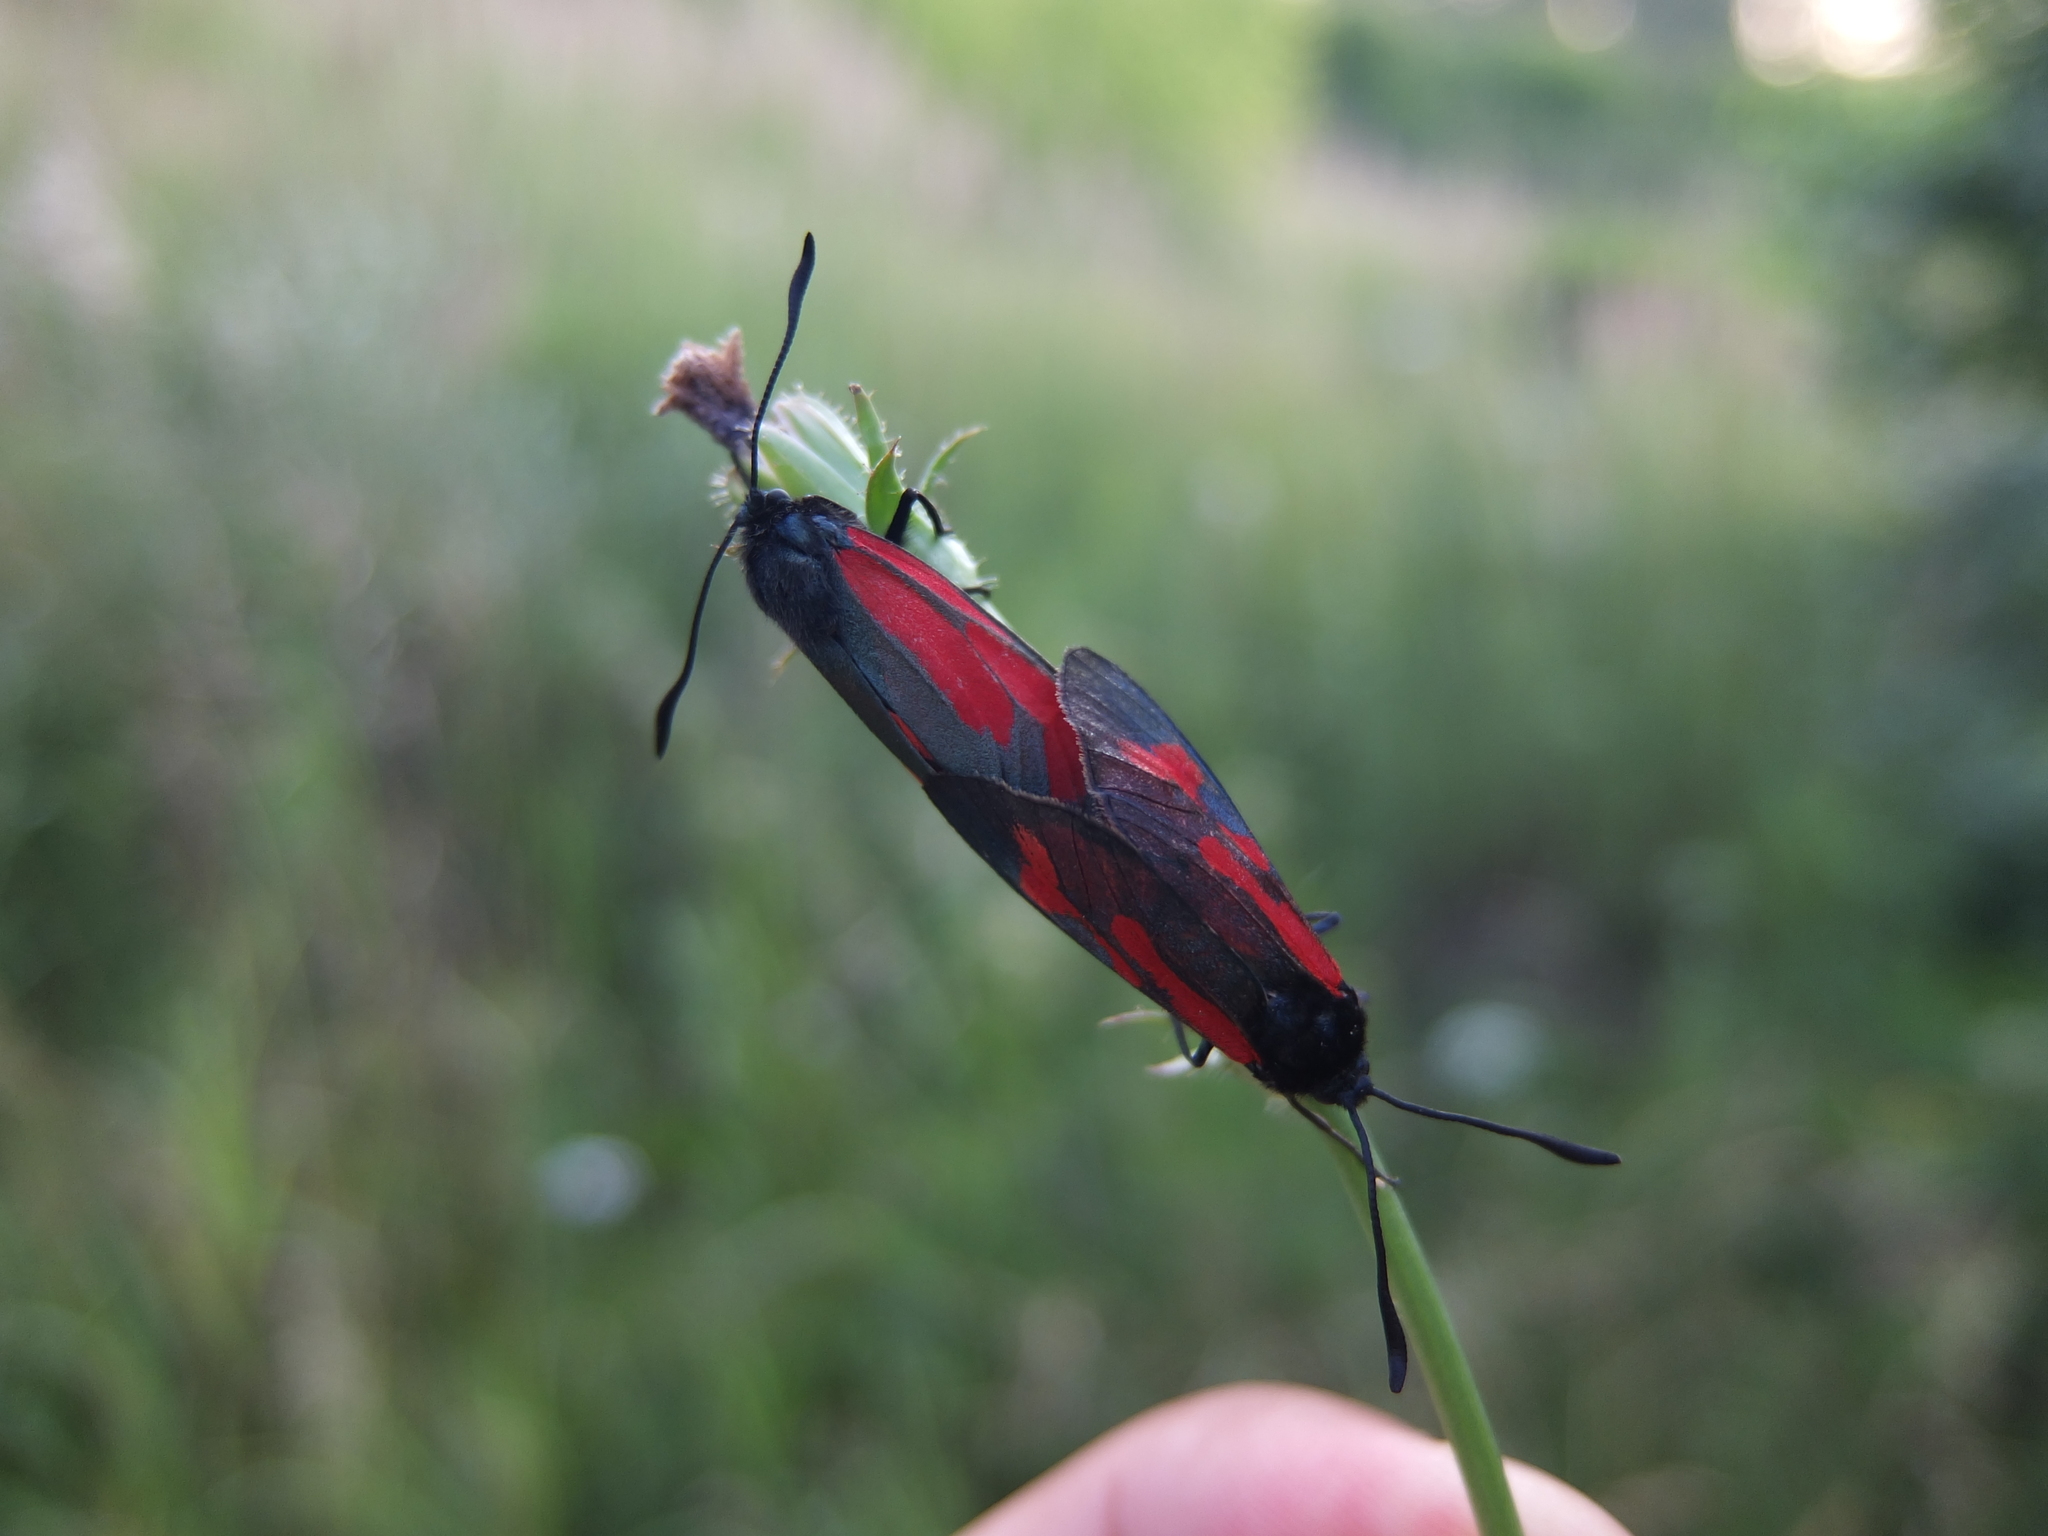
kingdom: Animalia
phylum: Arthropoda
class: Insecta
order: Lepidoptera
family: Zygaenidae
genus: Zygaena
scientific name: Zygaena minos
